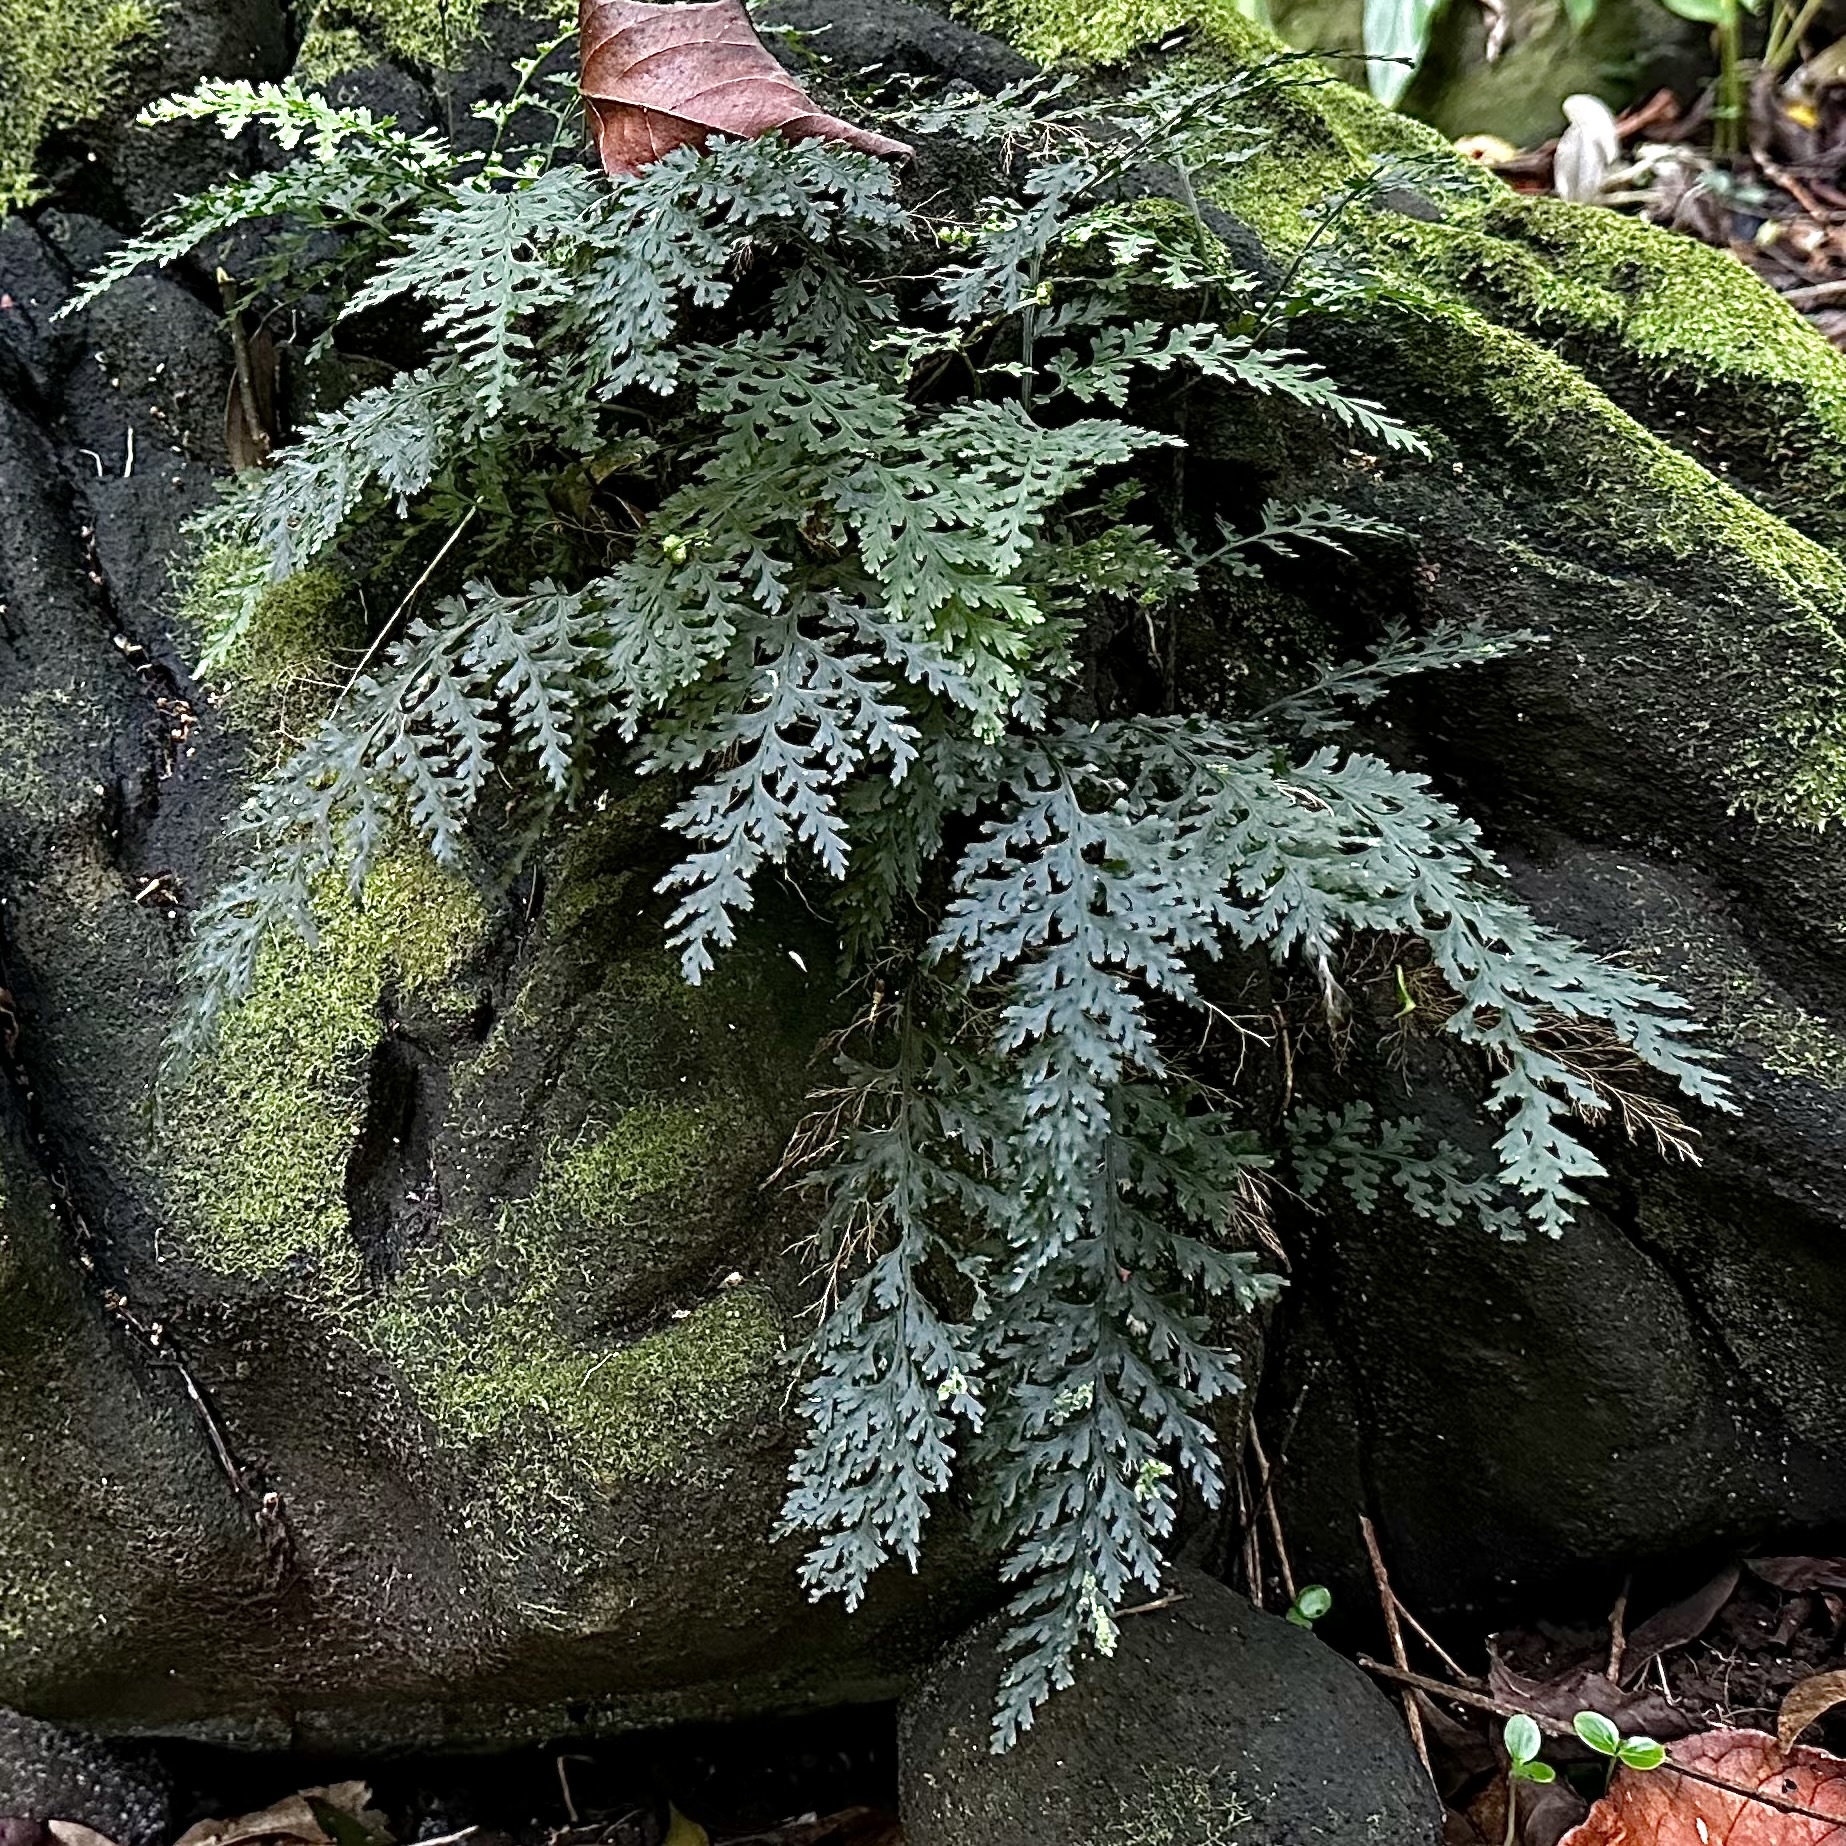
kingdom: Plantae
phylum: Tracheophyta
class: Polypodiopsida
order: Hymenophyllales
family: Hymenophyllaceae
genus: Vandenboschia
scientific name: Vandenboschia davallioides
